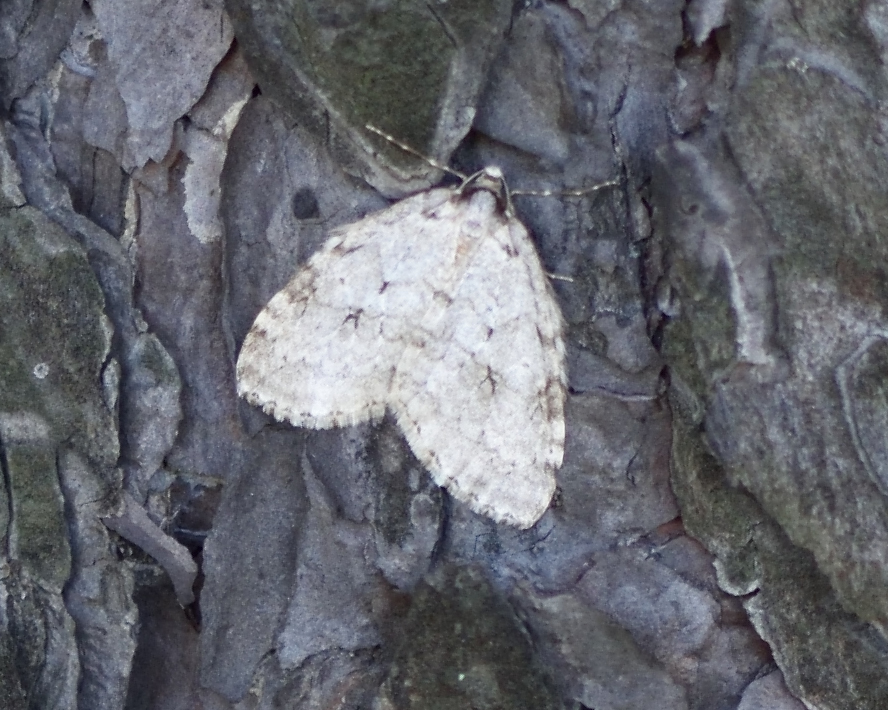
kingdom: Animalia
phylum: Arthropoda
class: Insecta
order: Lepidoptera
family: Geometridae
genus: Epirrita
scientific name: Epirrita autumnata
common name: Autumnal moth
